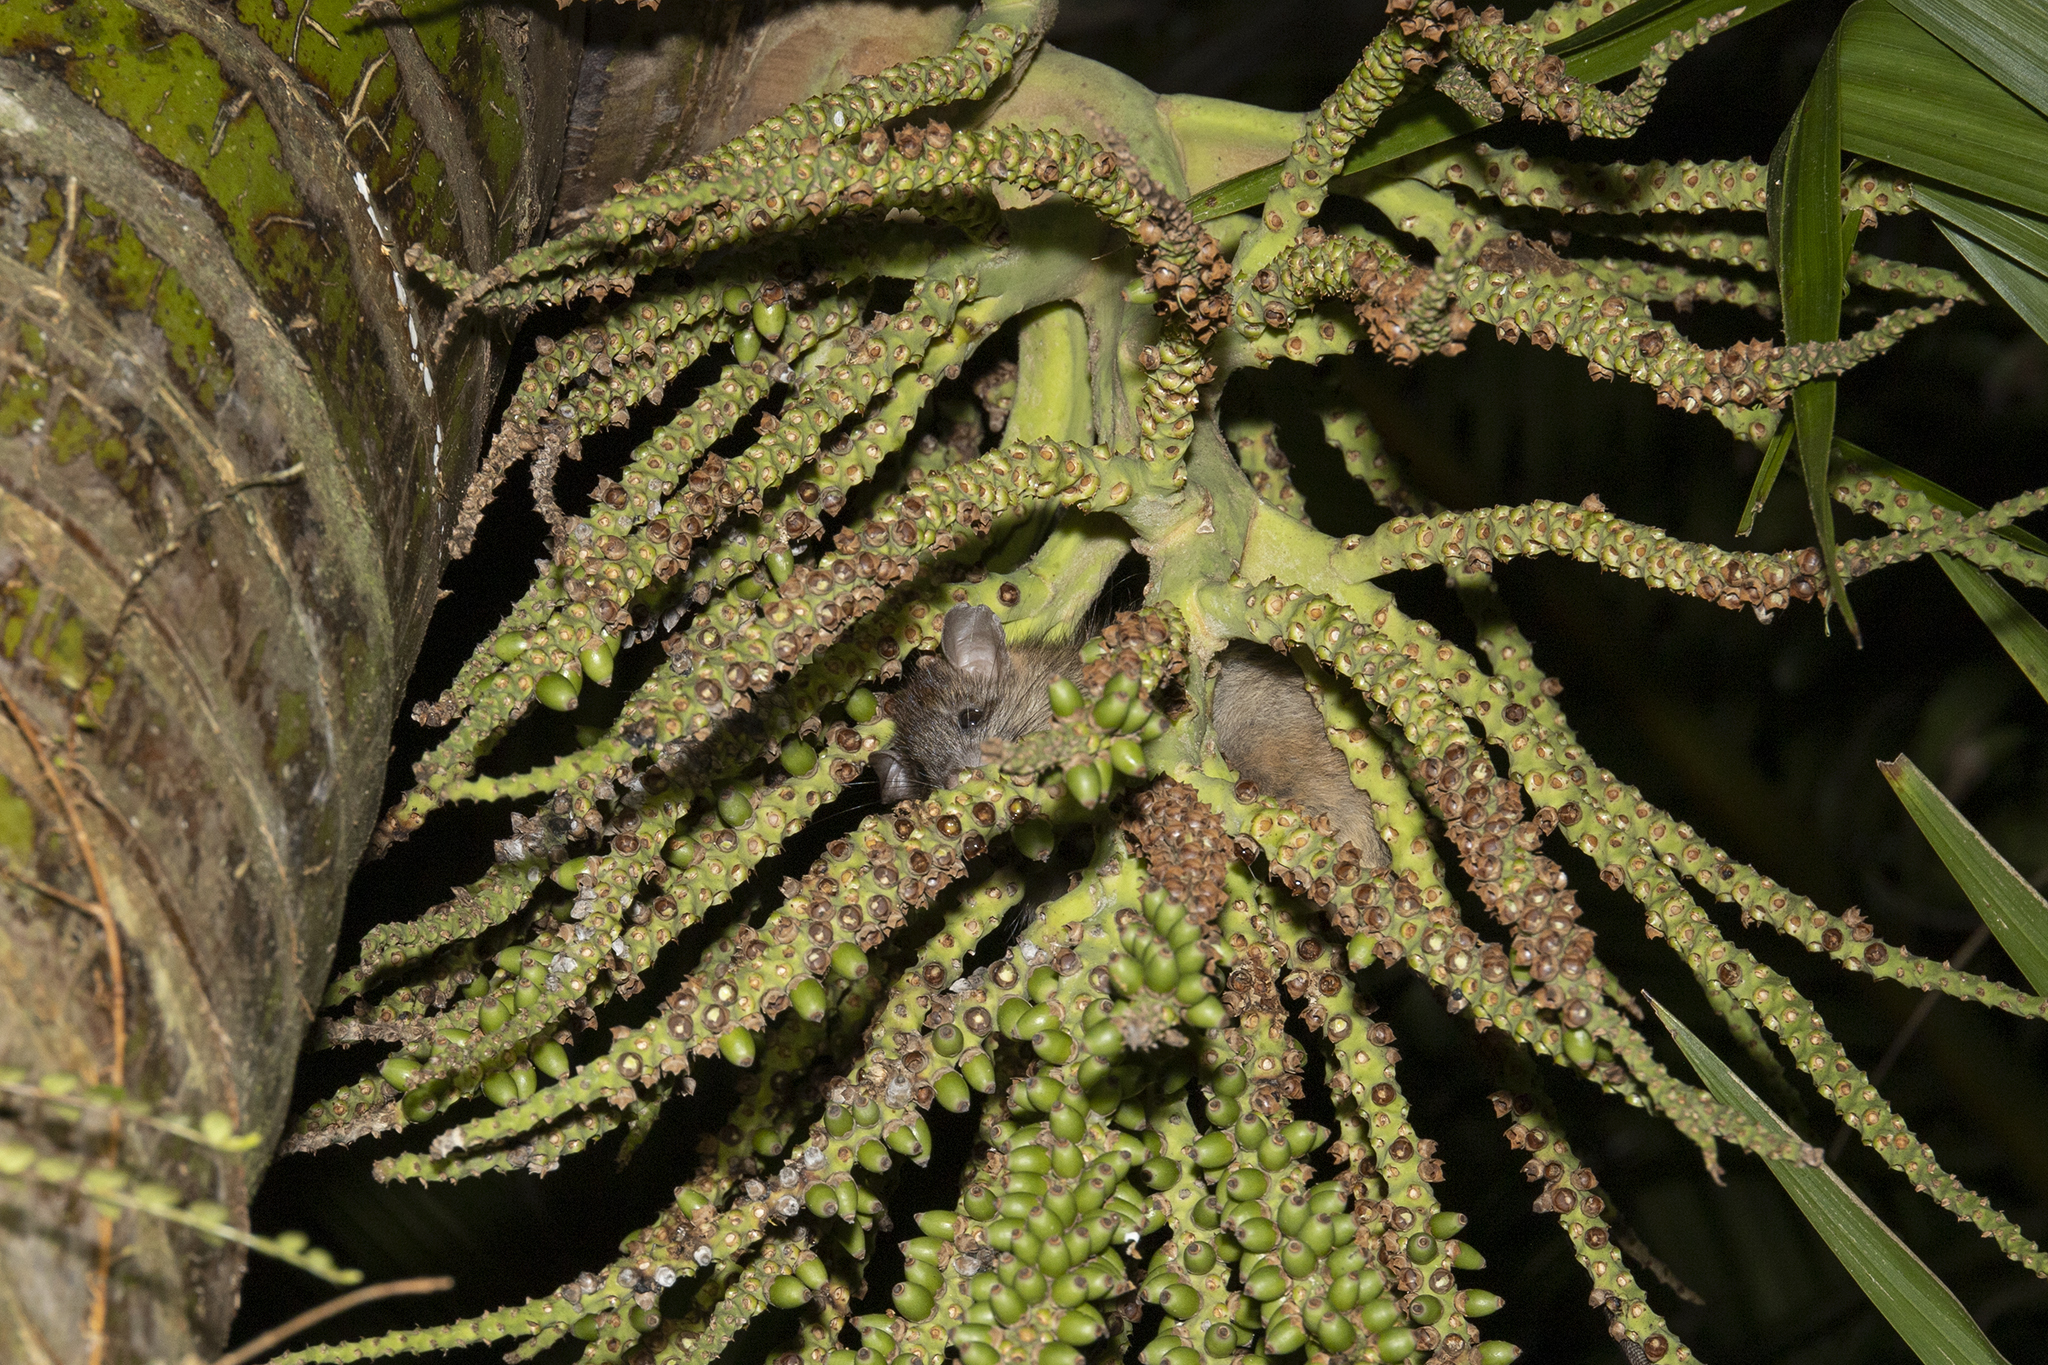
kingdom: Animalia
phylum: Chordata
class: Mammalia
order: Rodentia
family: Muridae
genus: Rattus
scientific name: Rattus rattus
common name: Black rat
